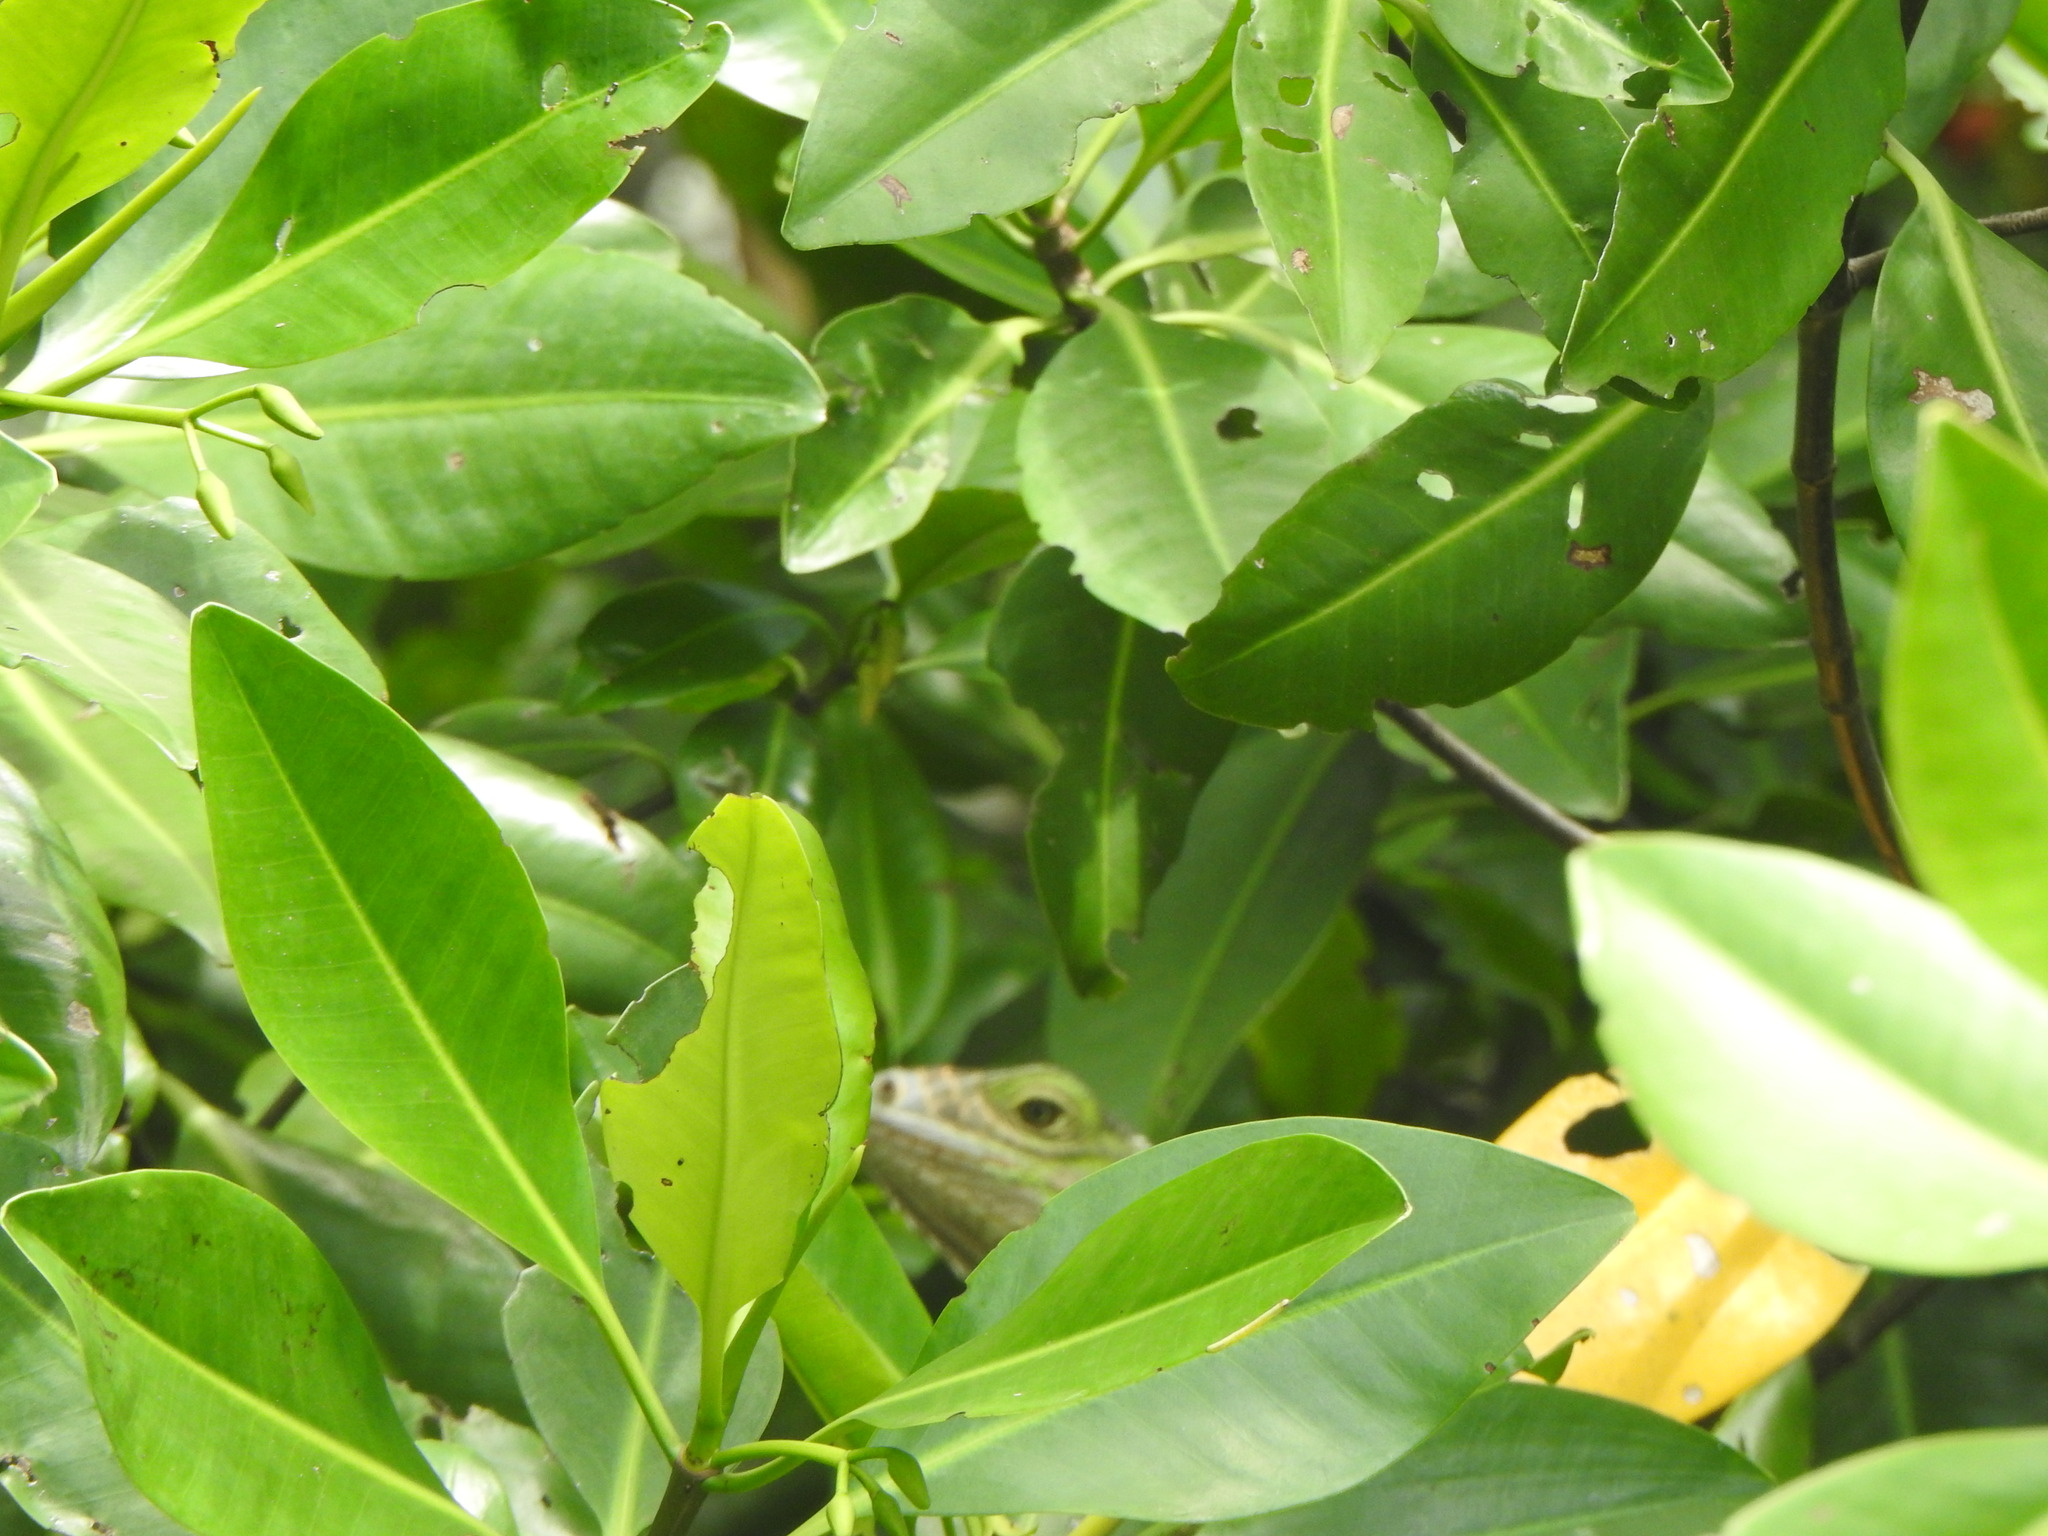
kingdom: Animalia
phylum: Chordata
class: Squamata
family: Iguanidae
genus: Iguana
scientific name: Iguana iguana
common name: Green iguana
